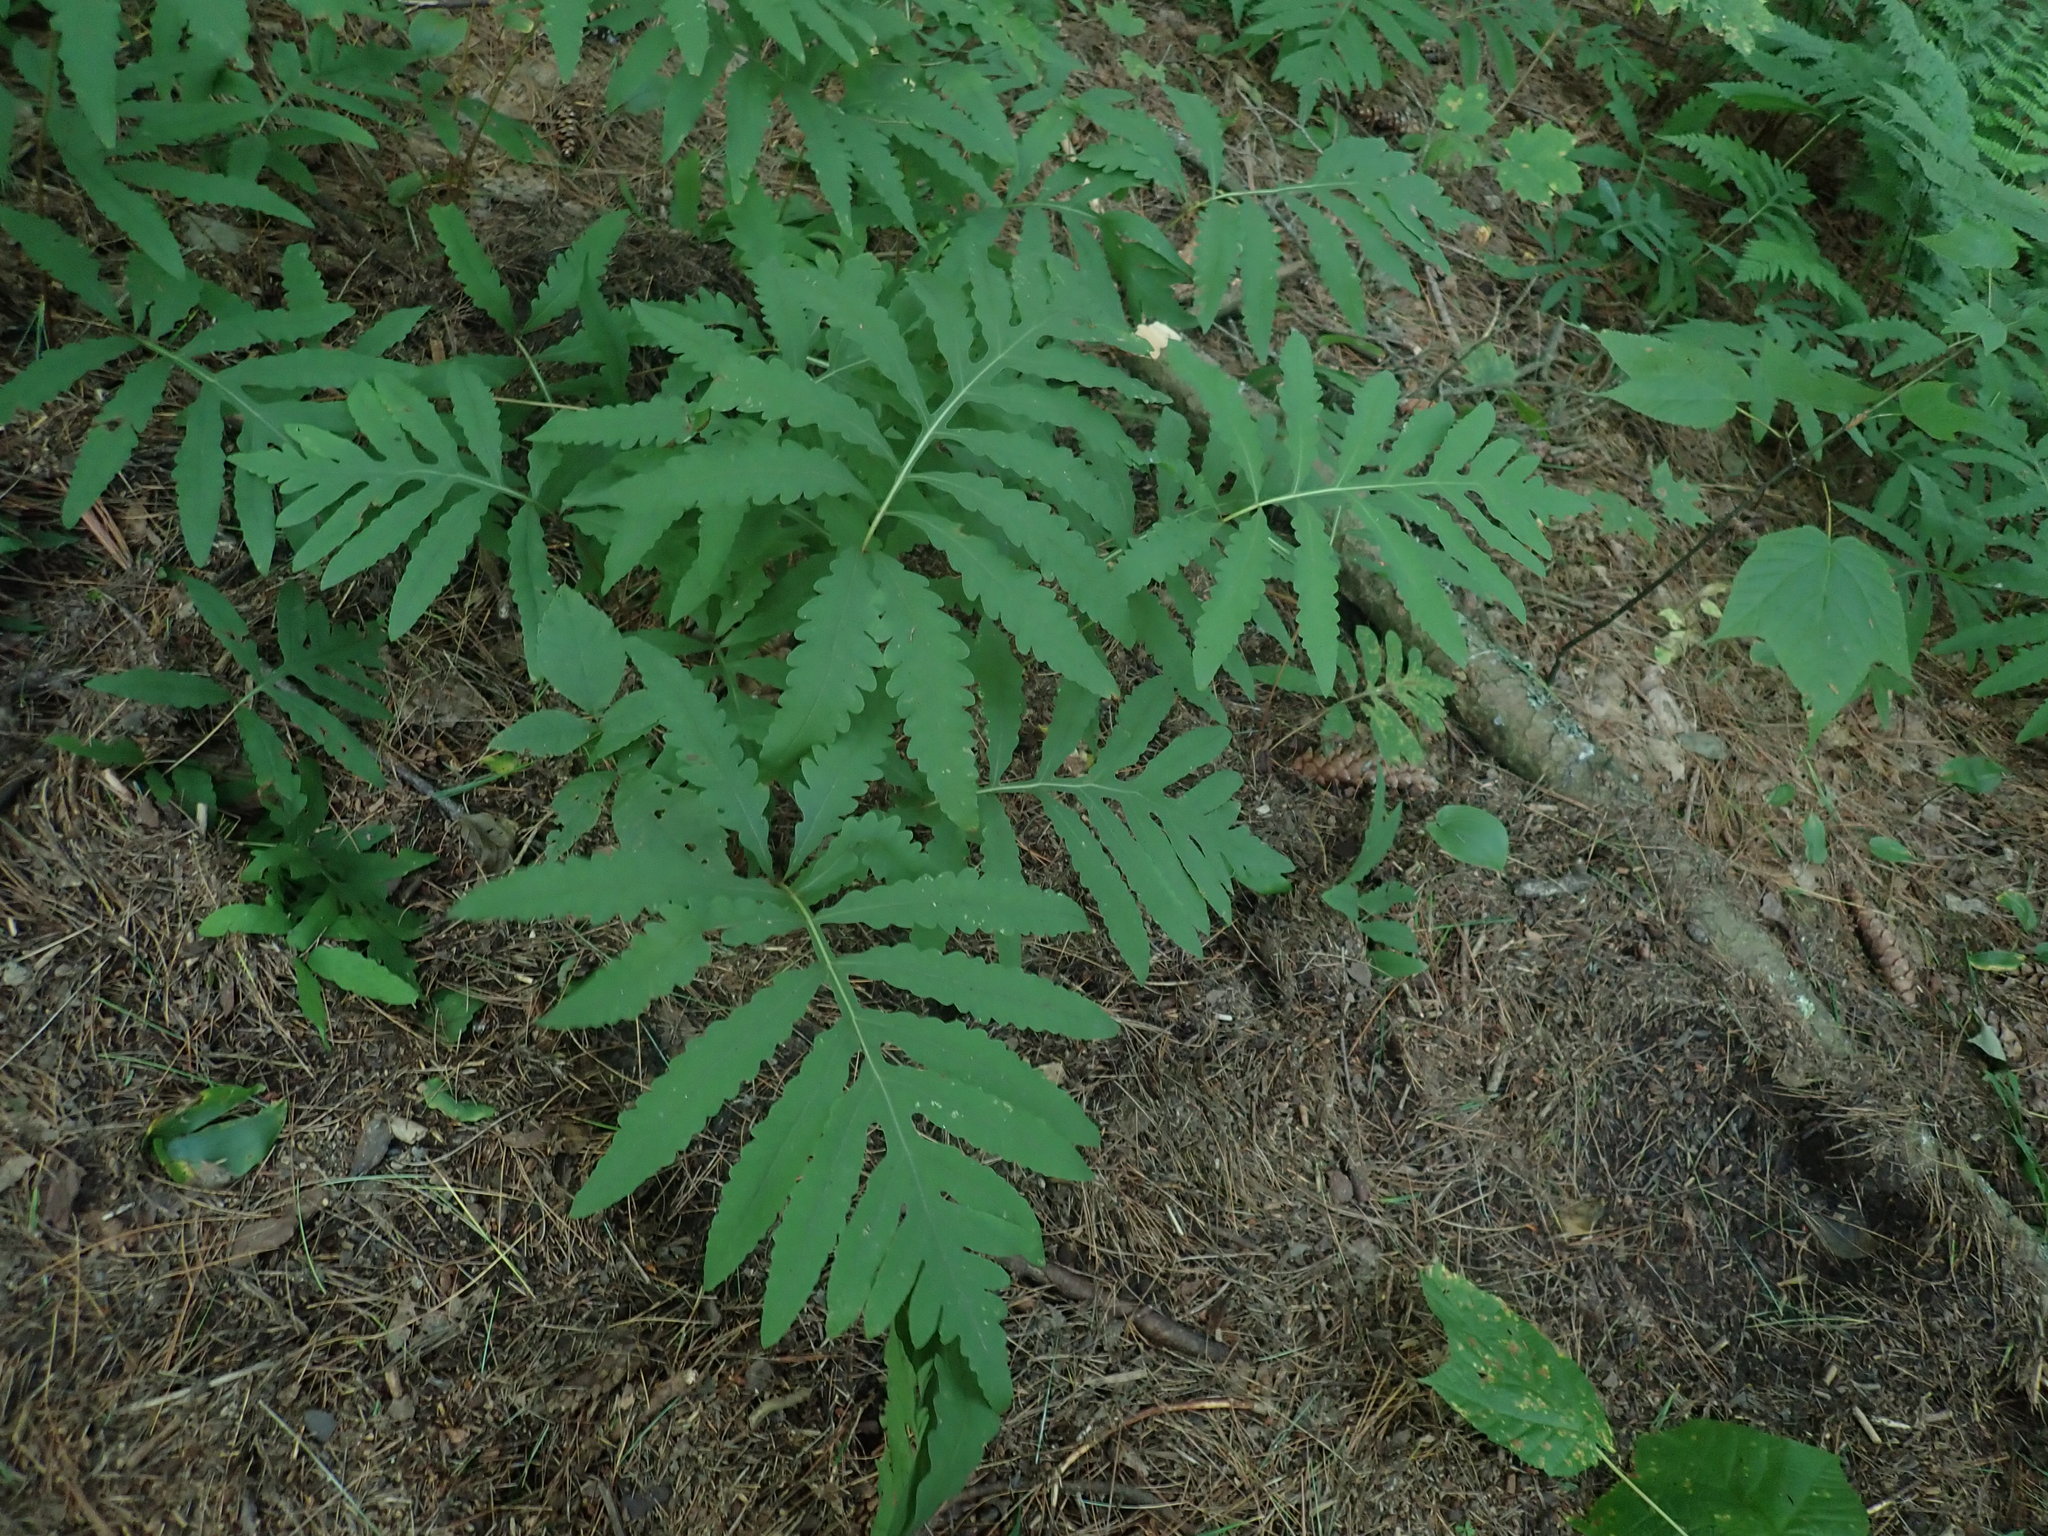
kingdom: Plantae
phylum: Tracheophyta
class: Polypodiopsida
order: Polypodiales
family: Onocleaceae
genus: Onoclea
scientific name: Onoclea sensibilis
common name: Sensitive fern
